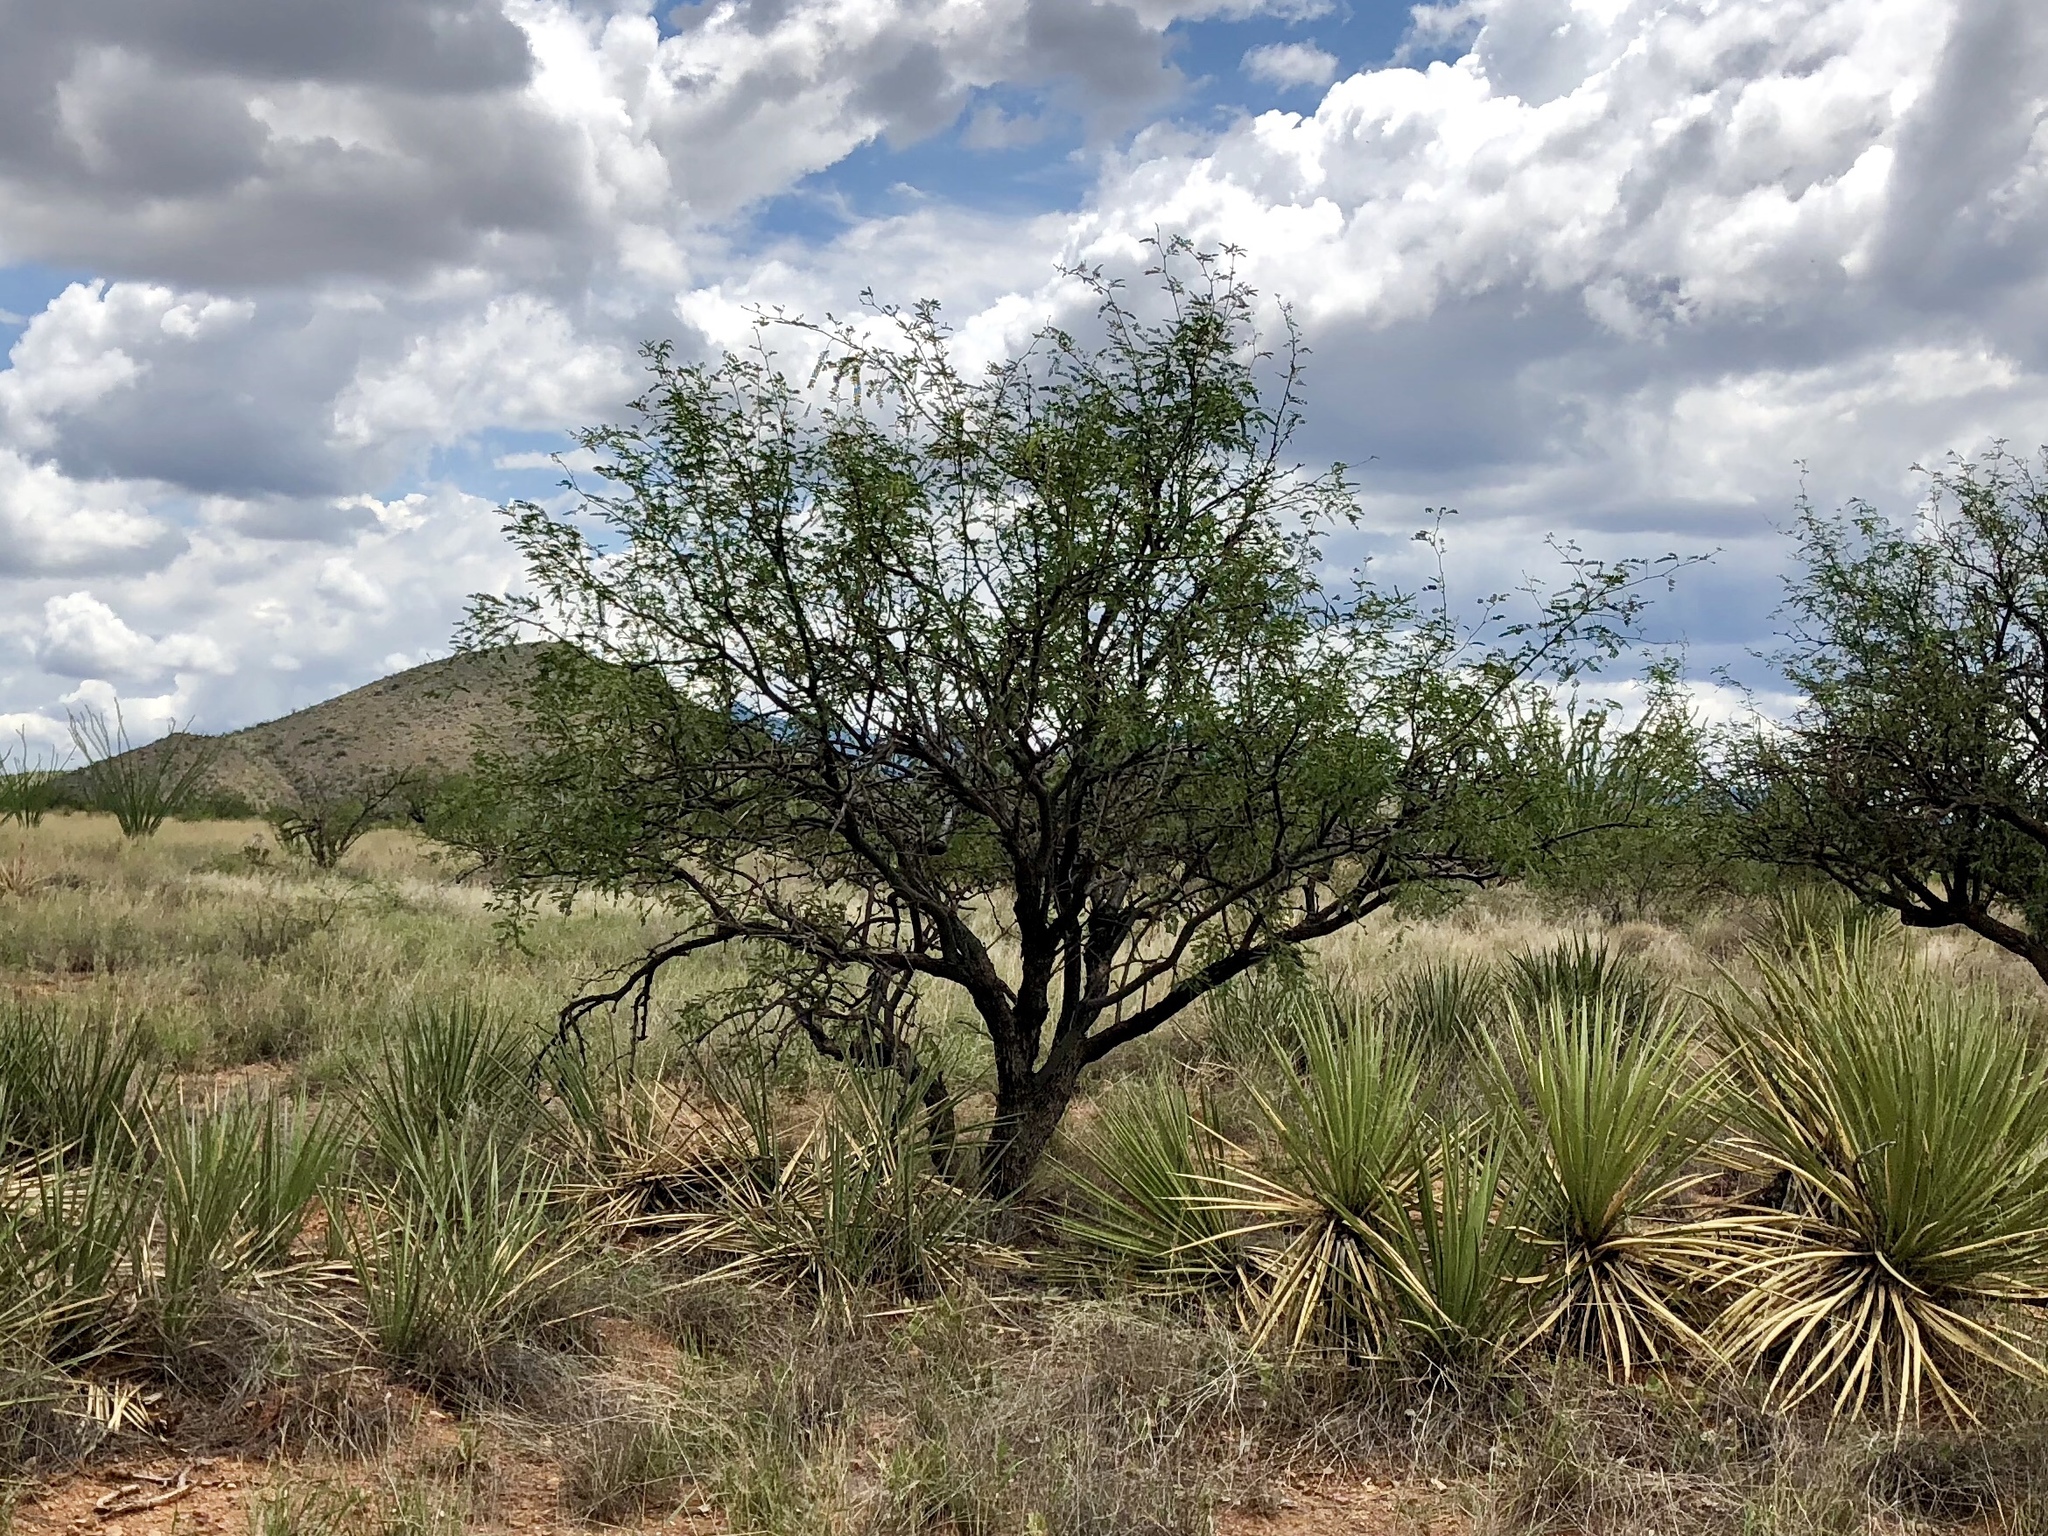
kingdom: Plantae
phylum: Tracheophyta
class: Magnoliopsida
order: Fabales
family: Fabaceae
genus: Prosopis
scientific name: Prosopis velutina
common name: Velvet mesquite
